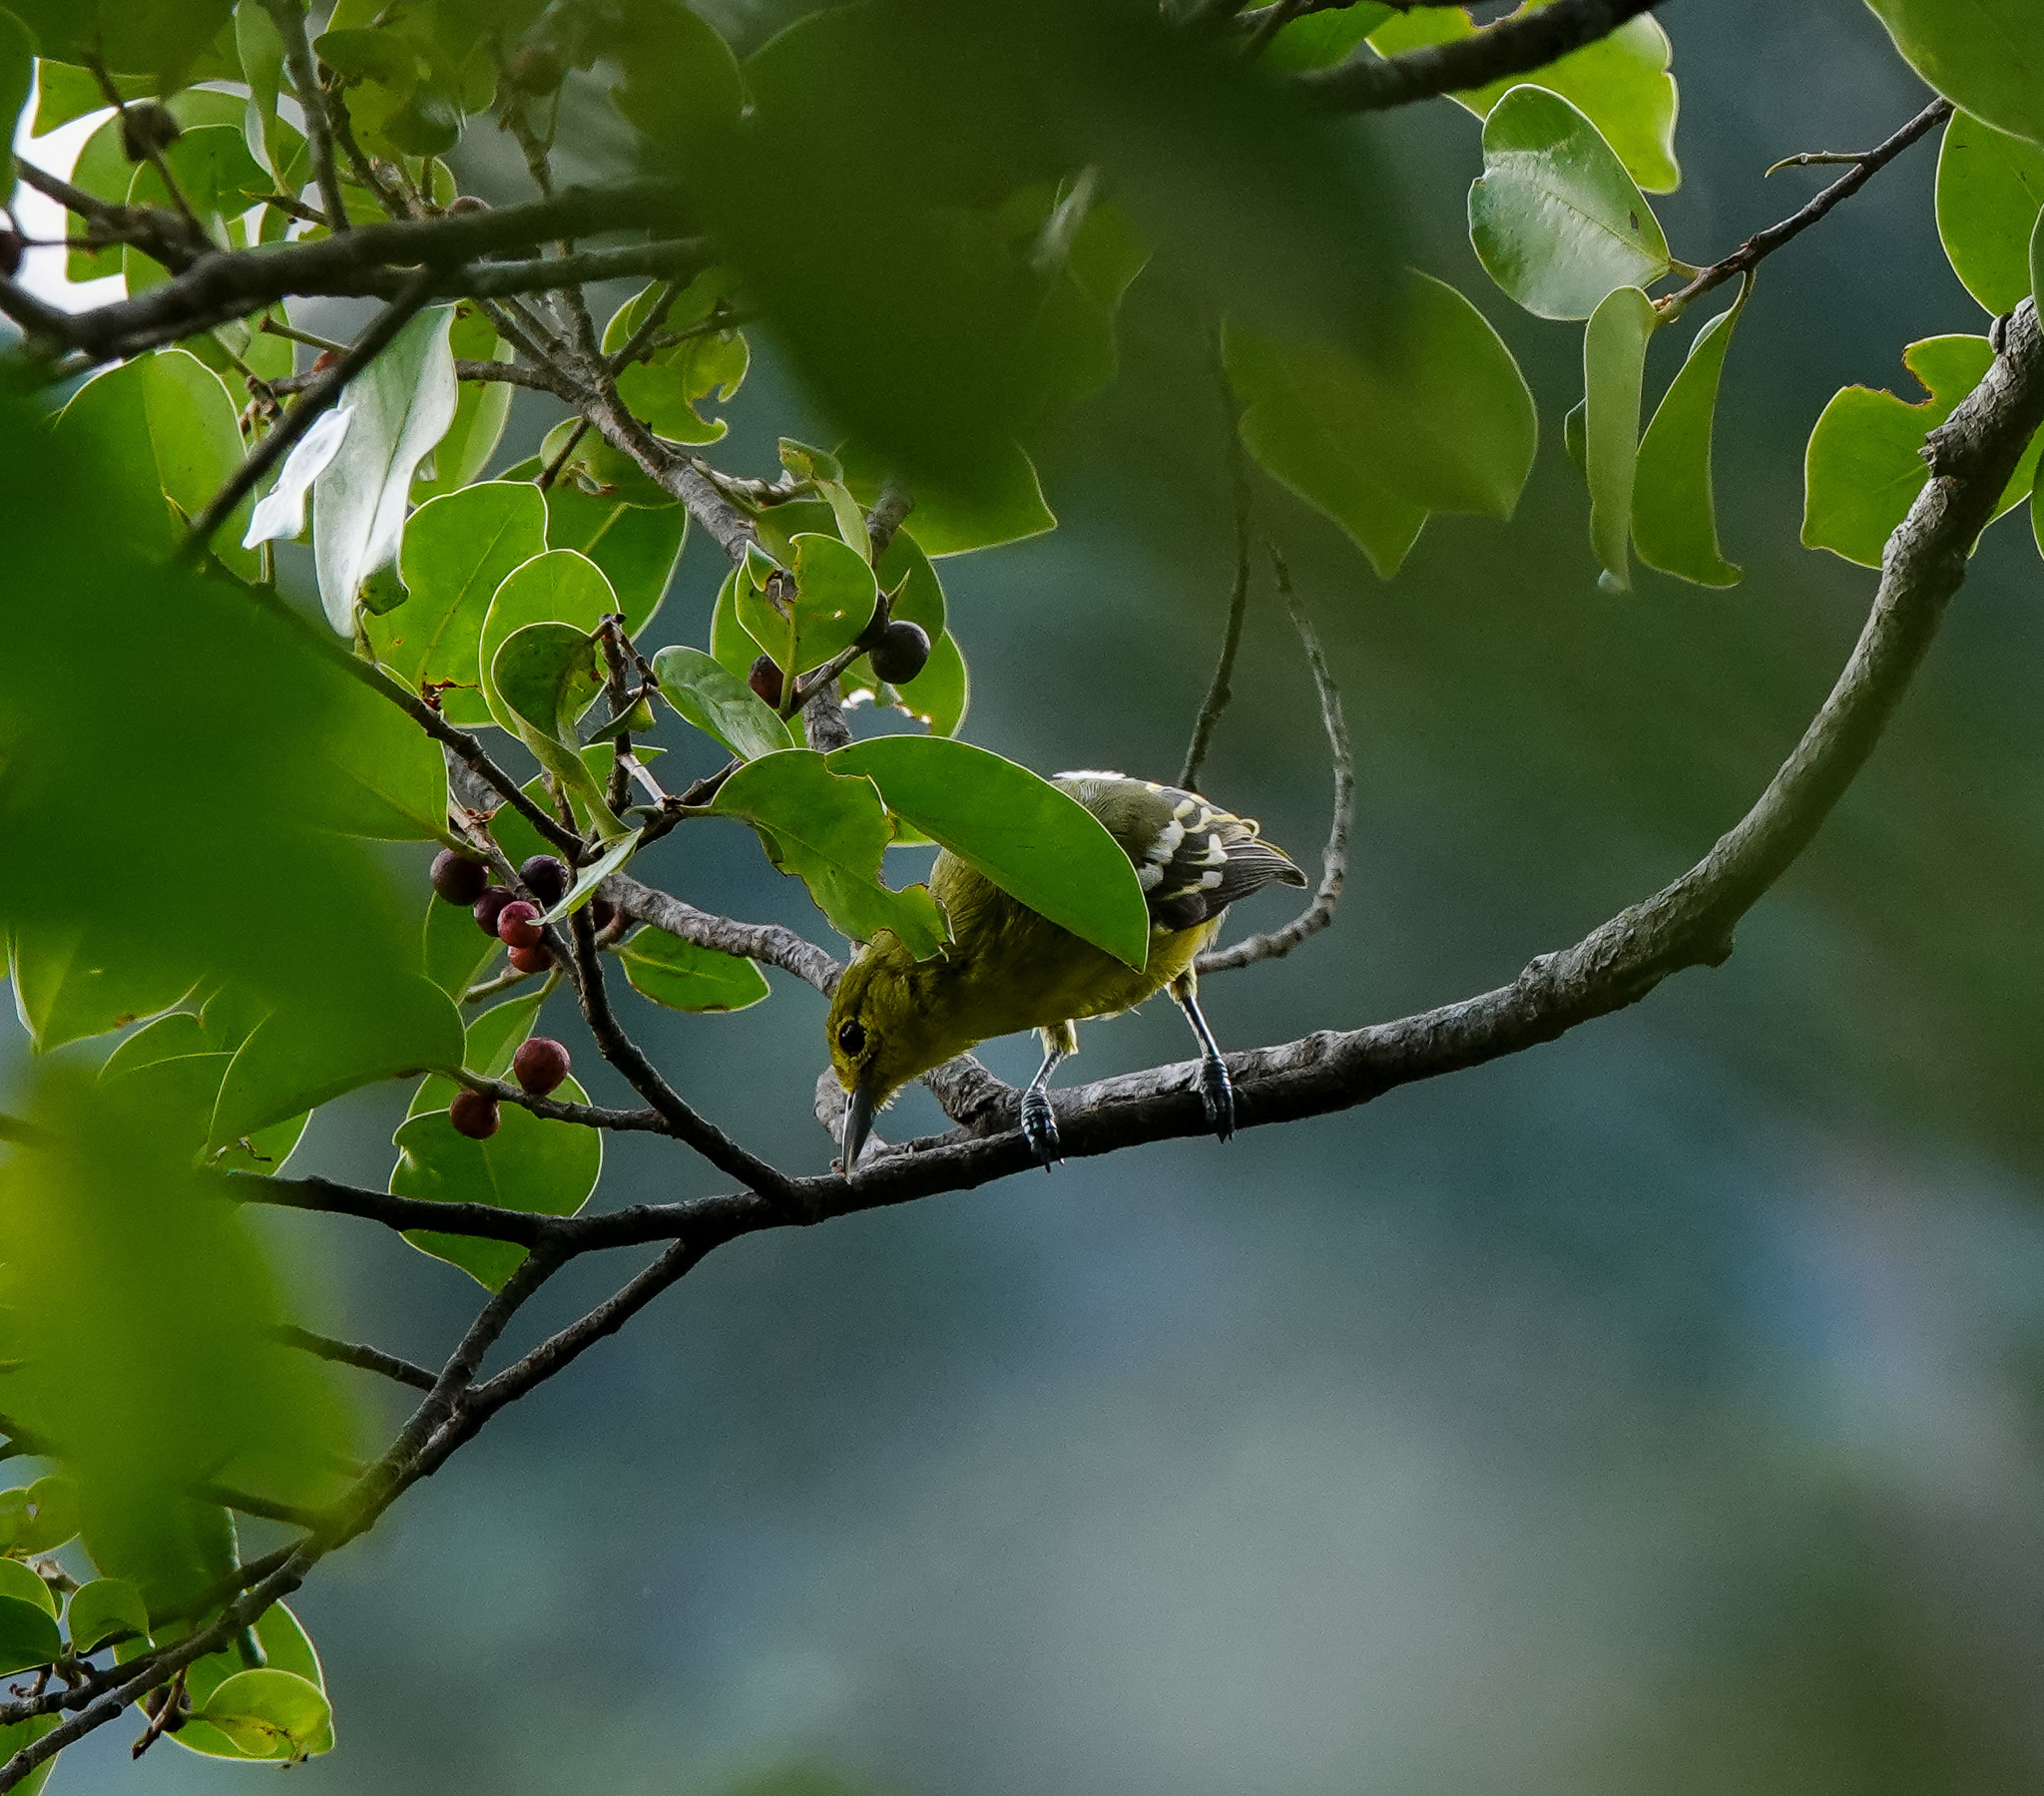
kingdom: Animalia
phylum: Chordata
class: Aves
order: Passeriformes
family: Aegithinidae
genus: Aegithina
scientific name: Aegithina tiphia
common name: Common iora
